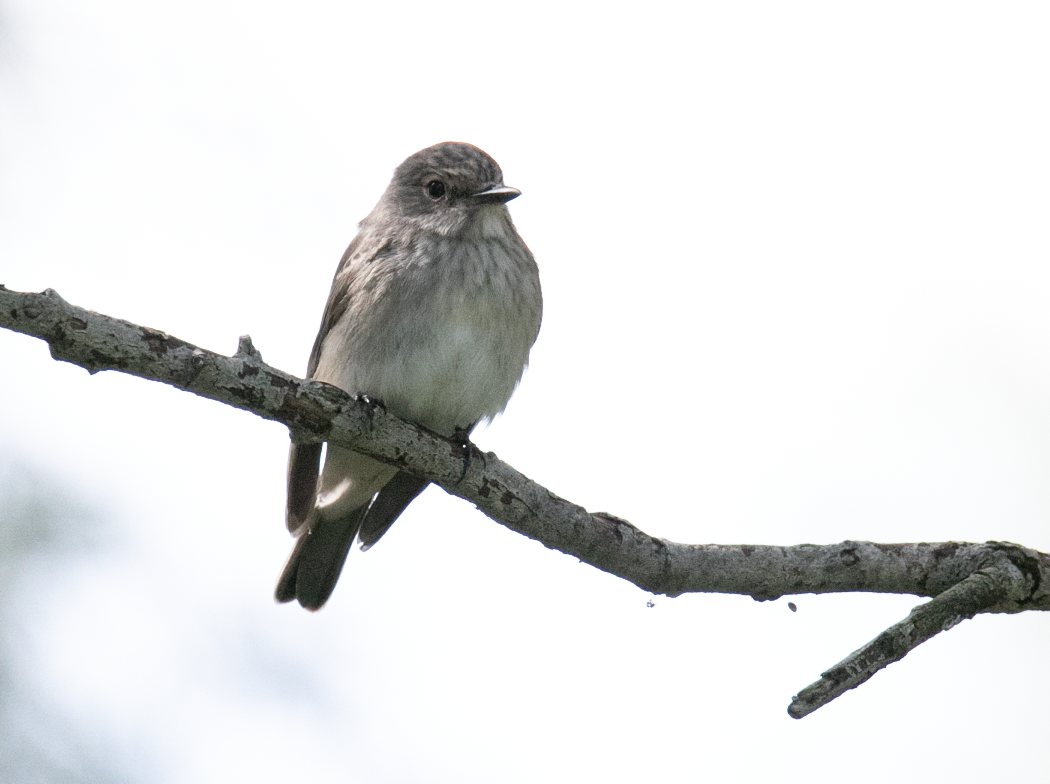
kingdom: Animalia
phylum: Chordata
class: Aves
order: Passeriformes
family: Muscicapidae
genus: Muscicapa
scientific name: Muscicapa striata
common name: Spotted flycatcher
